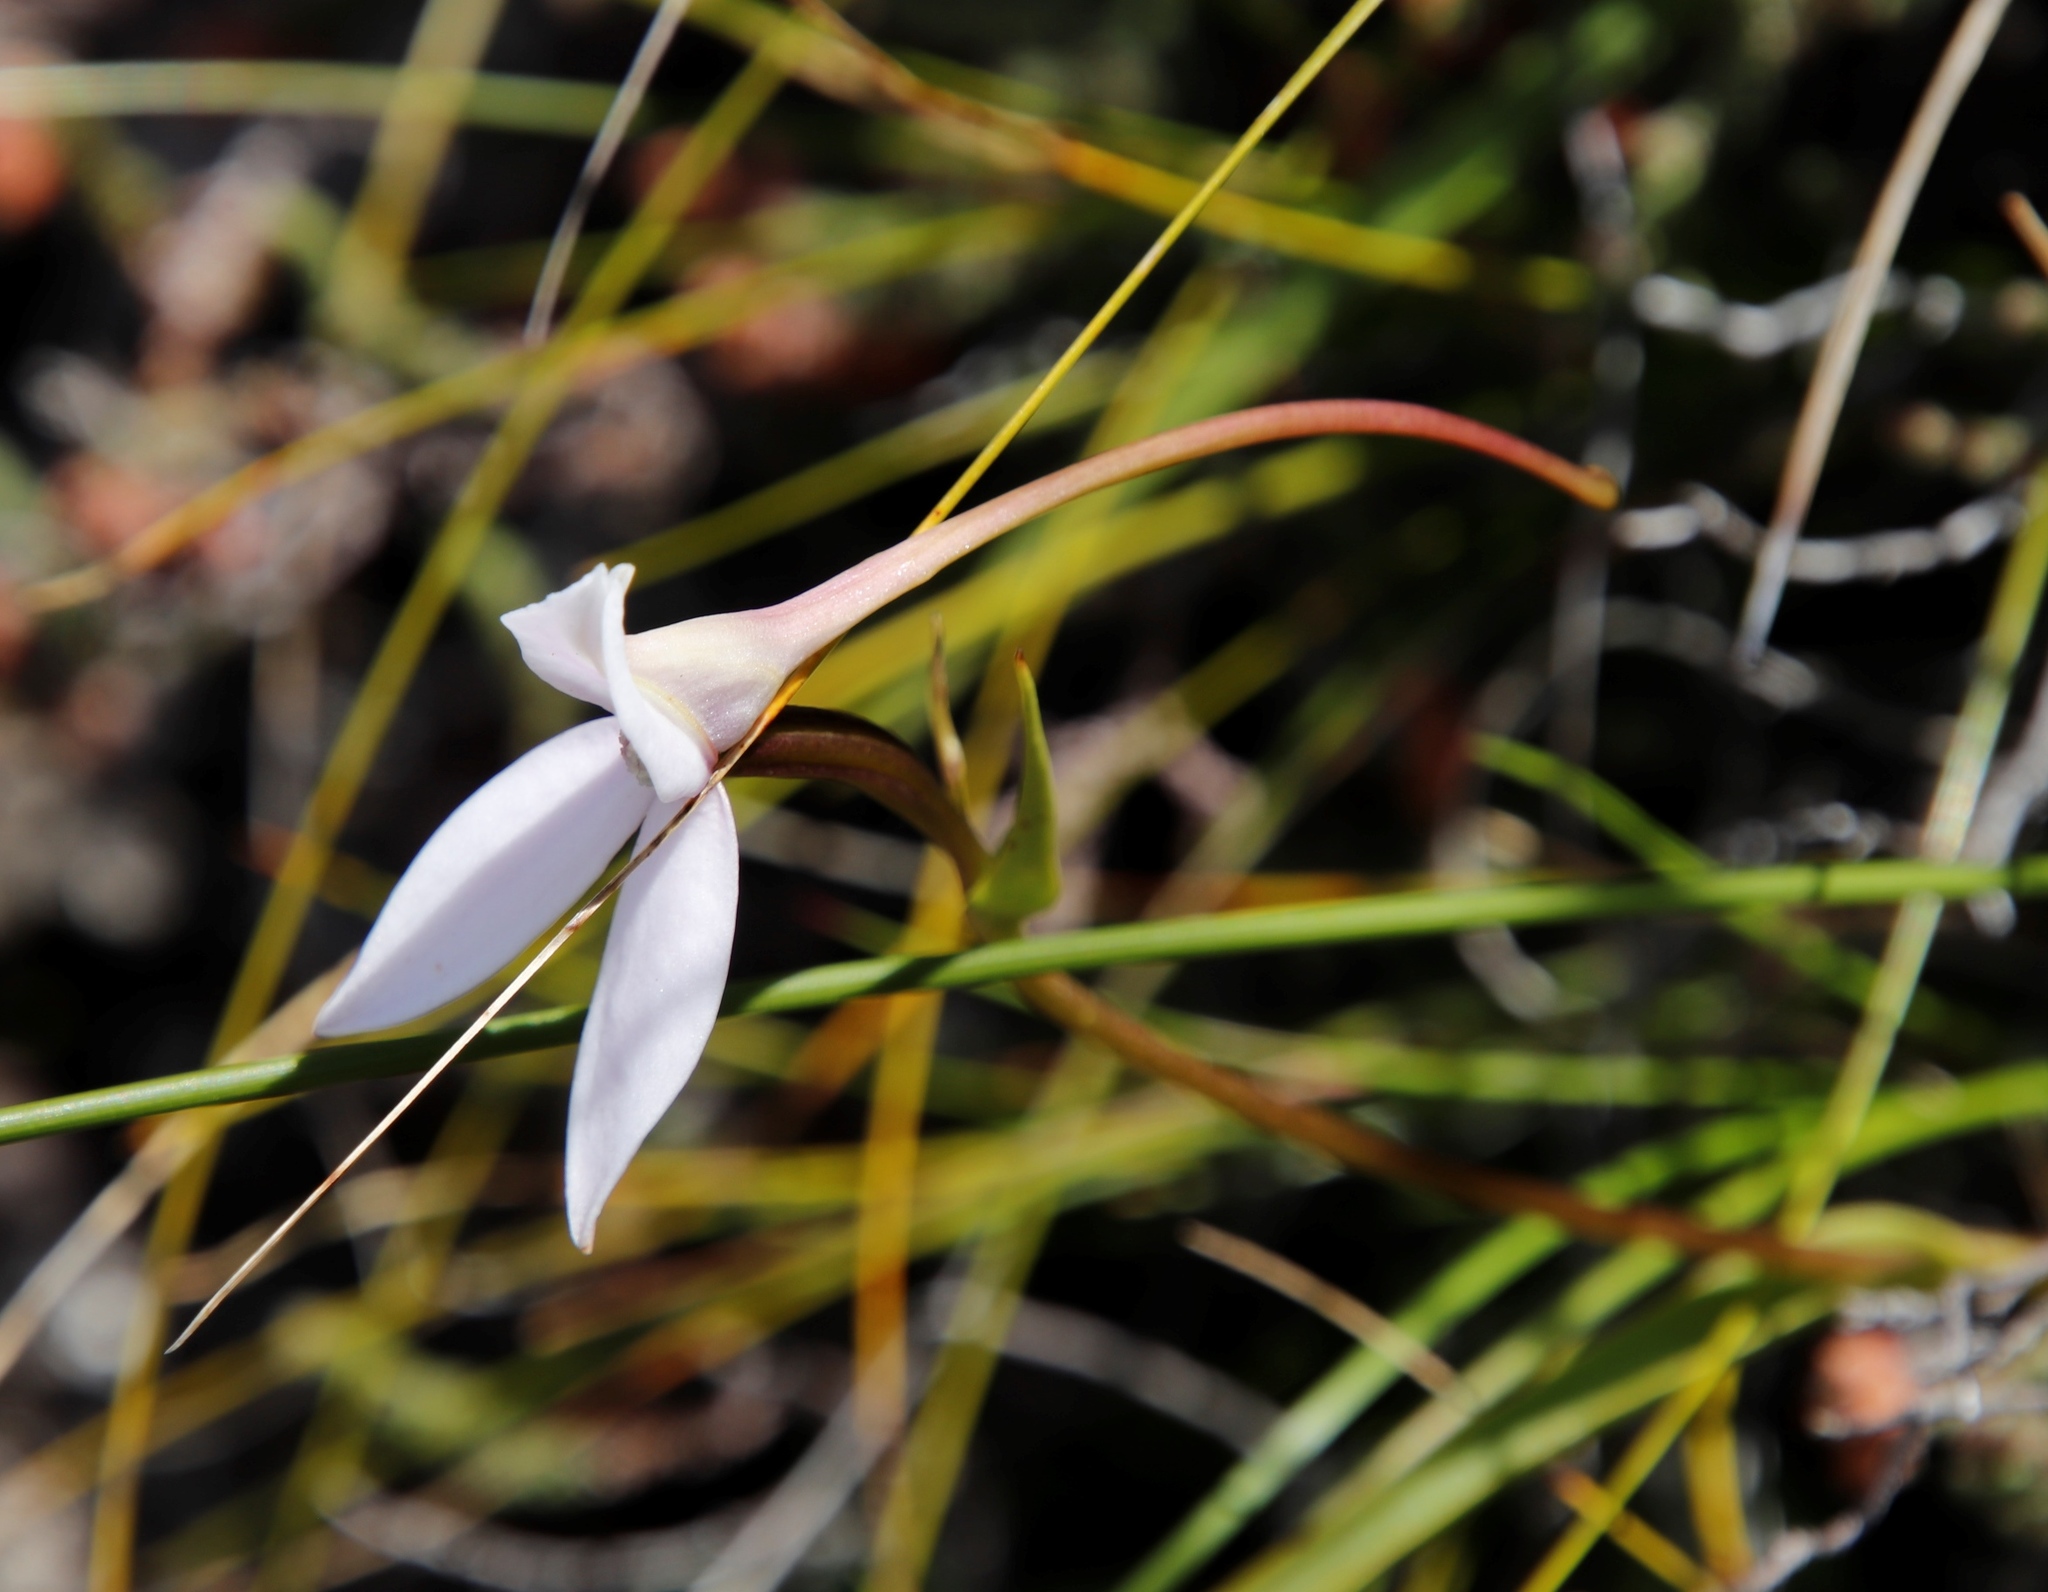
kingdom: Plantae
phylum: Tracheophyta
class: Liliopsida
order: Asparagales
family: Orchidaceae
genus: Brownleea
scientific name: Brownleea macroceras
